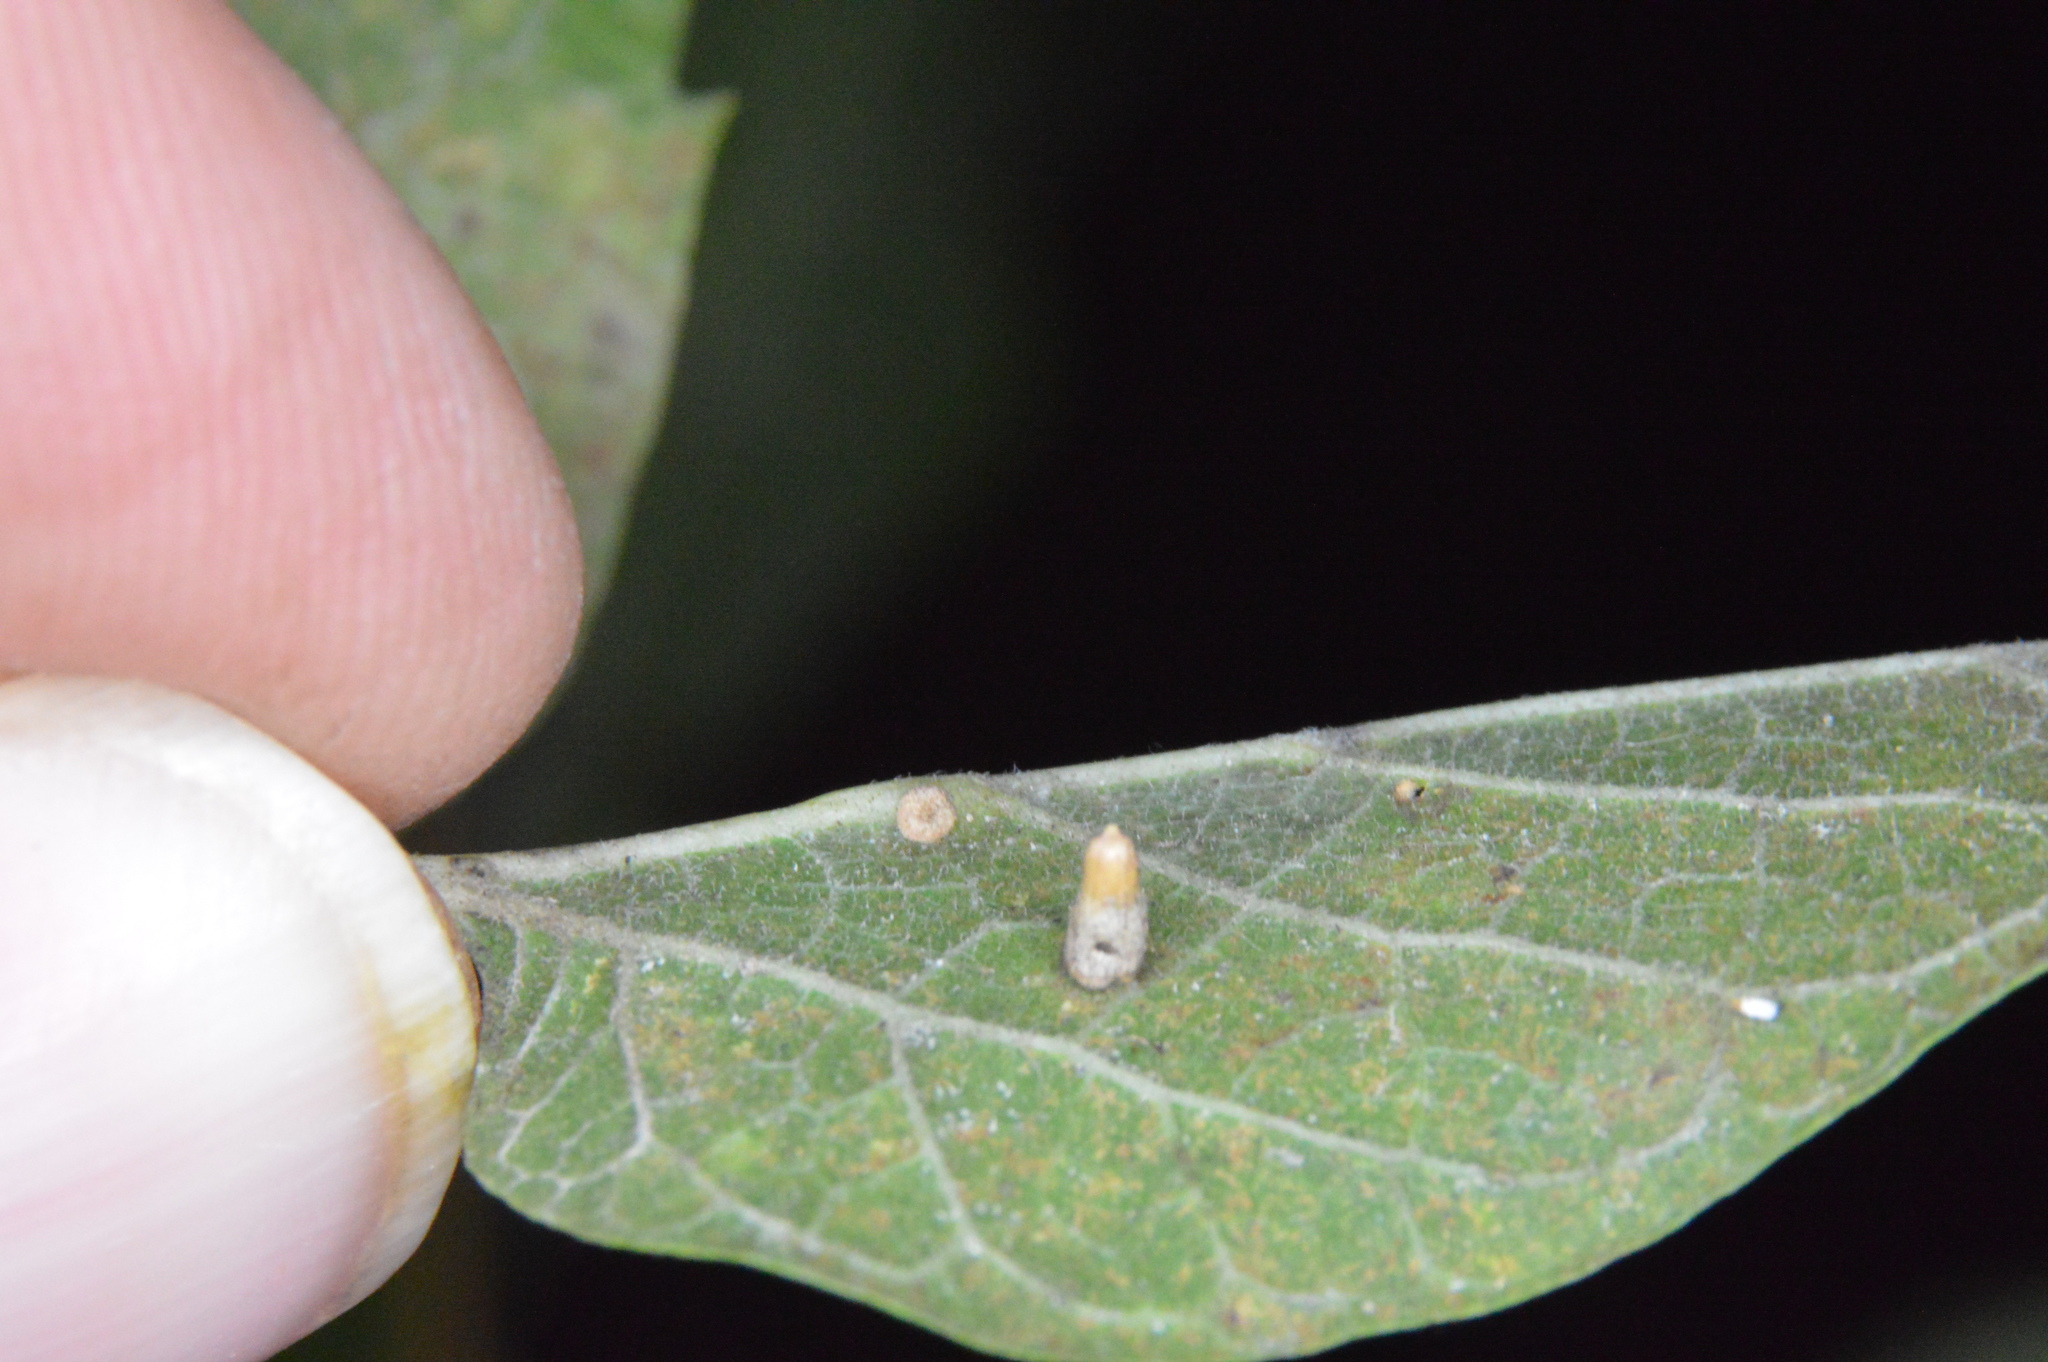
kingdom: Animalia
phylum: Arthropoda
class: Insecta
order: Diptera
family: Cecidomyiidae
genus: Celticecis
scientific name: Celticecis aciculata
